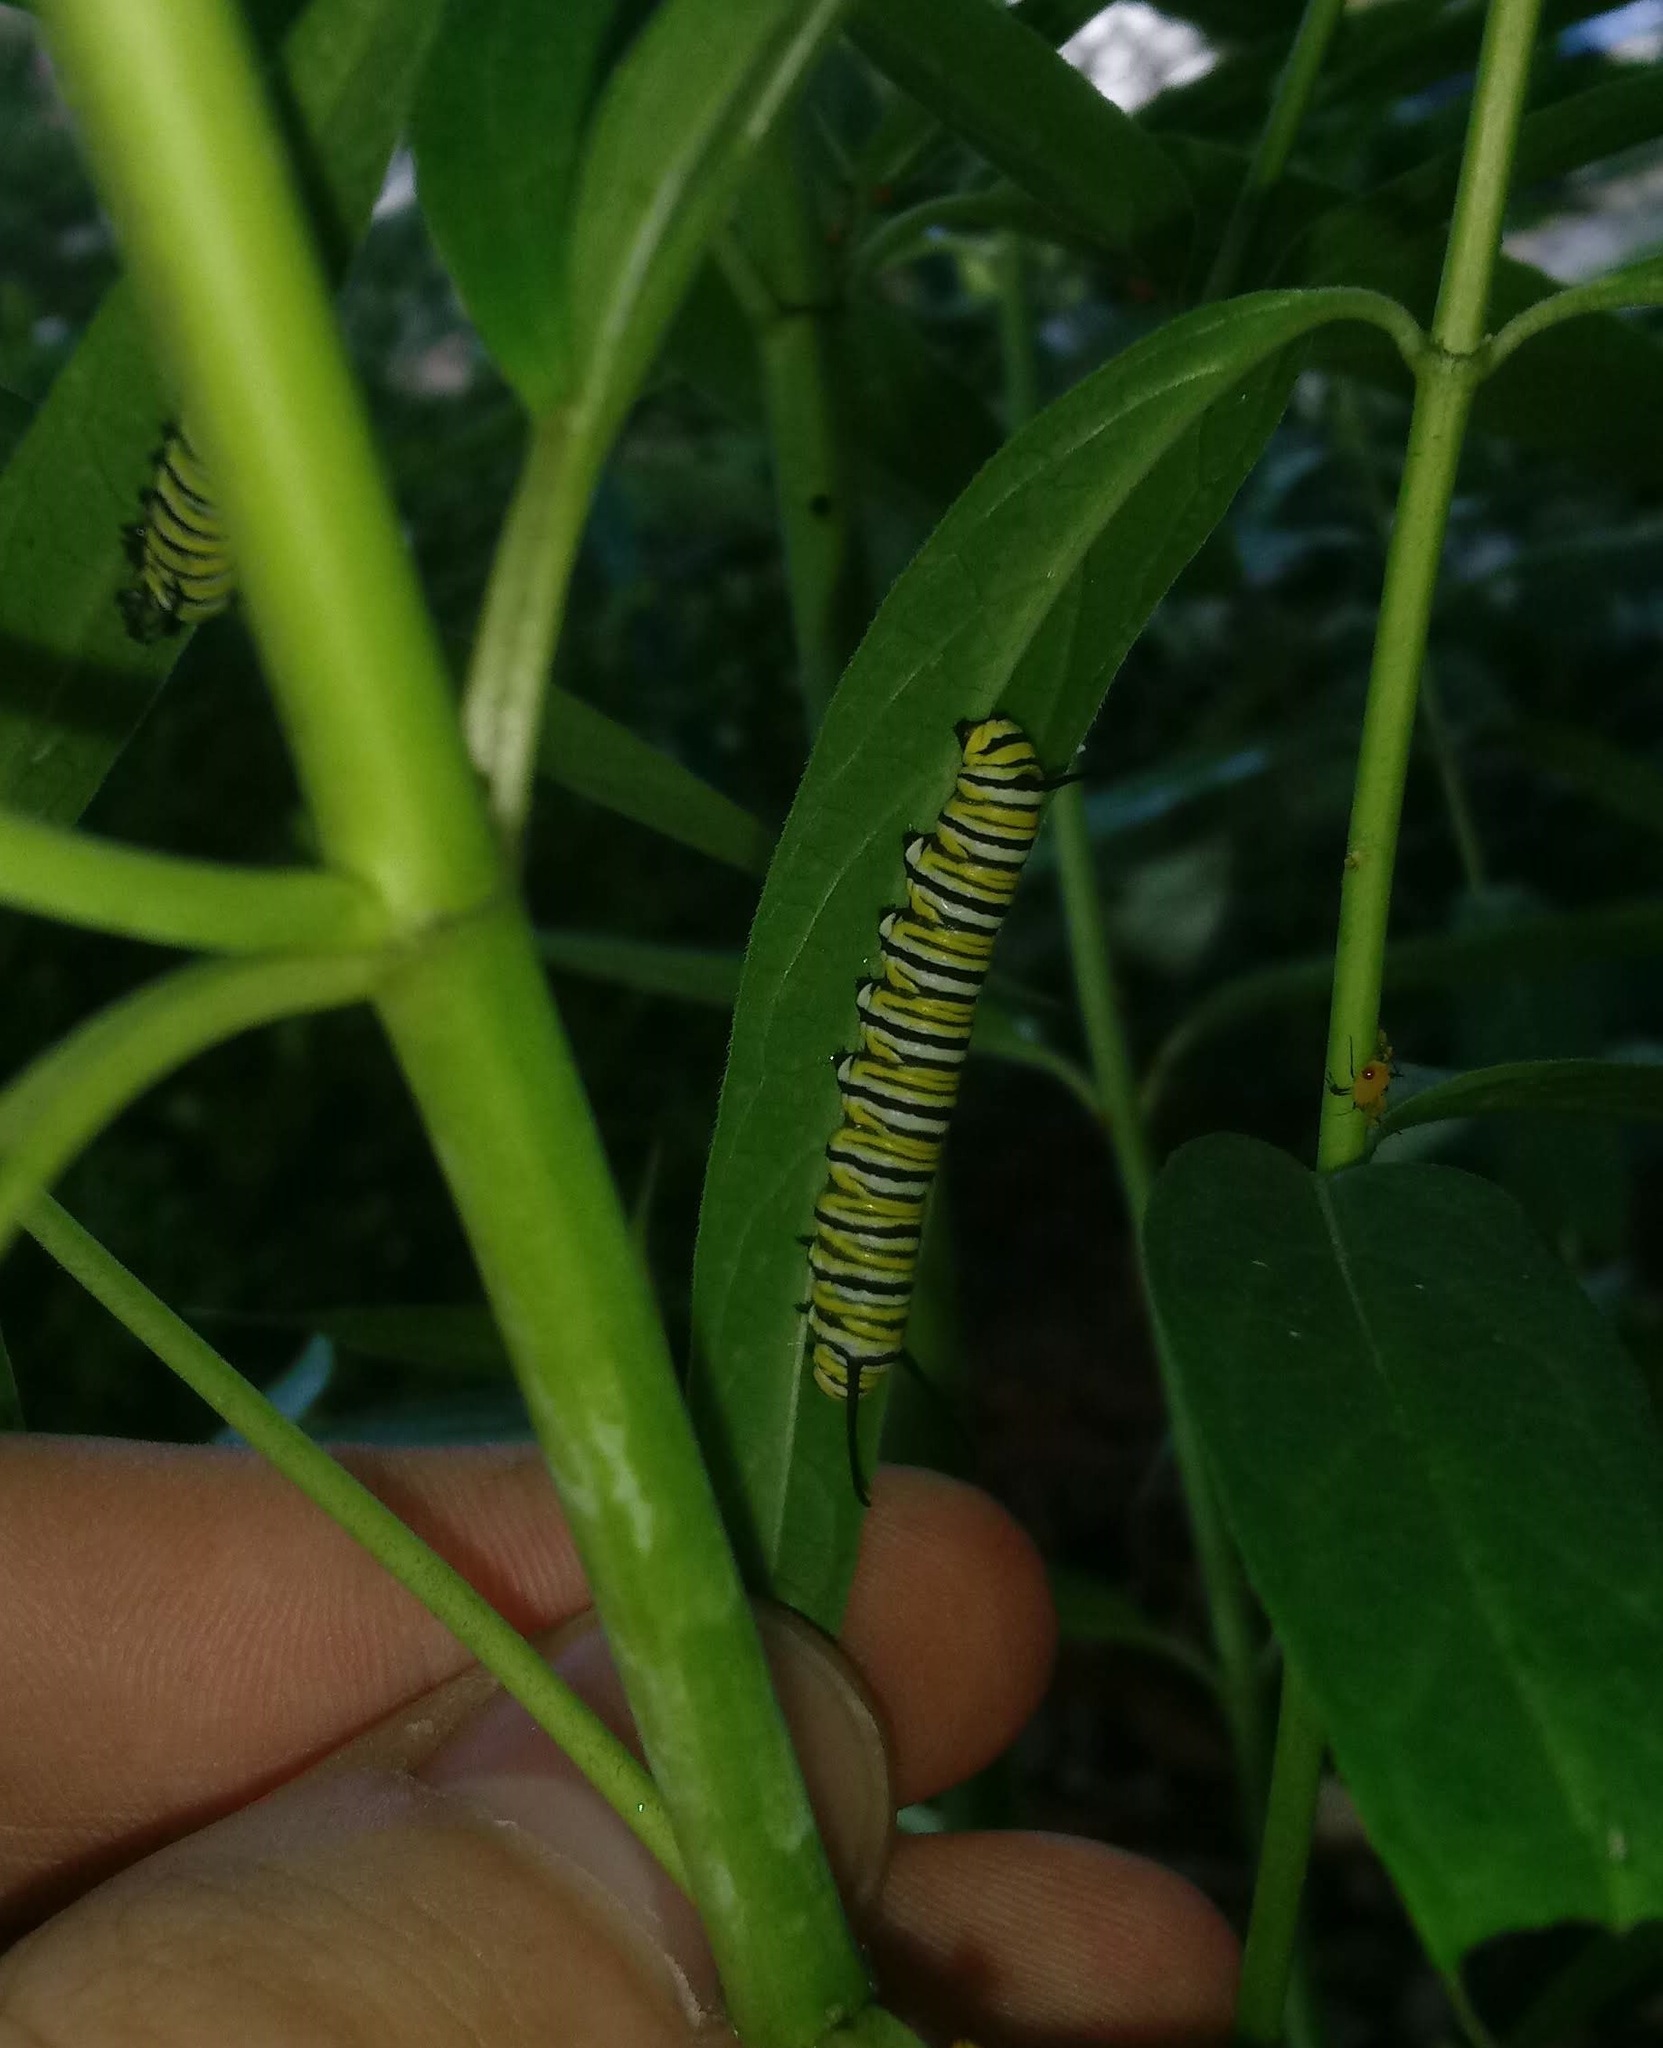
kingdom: Animalia
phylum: Arthropoda
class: Insecta
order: Lepidoptera
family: Nymphalidae
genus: Danaus
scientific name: Danaus plexippus
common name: Monarch
